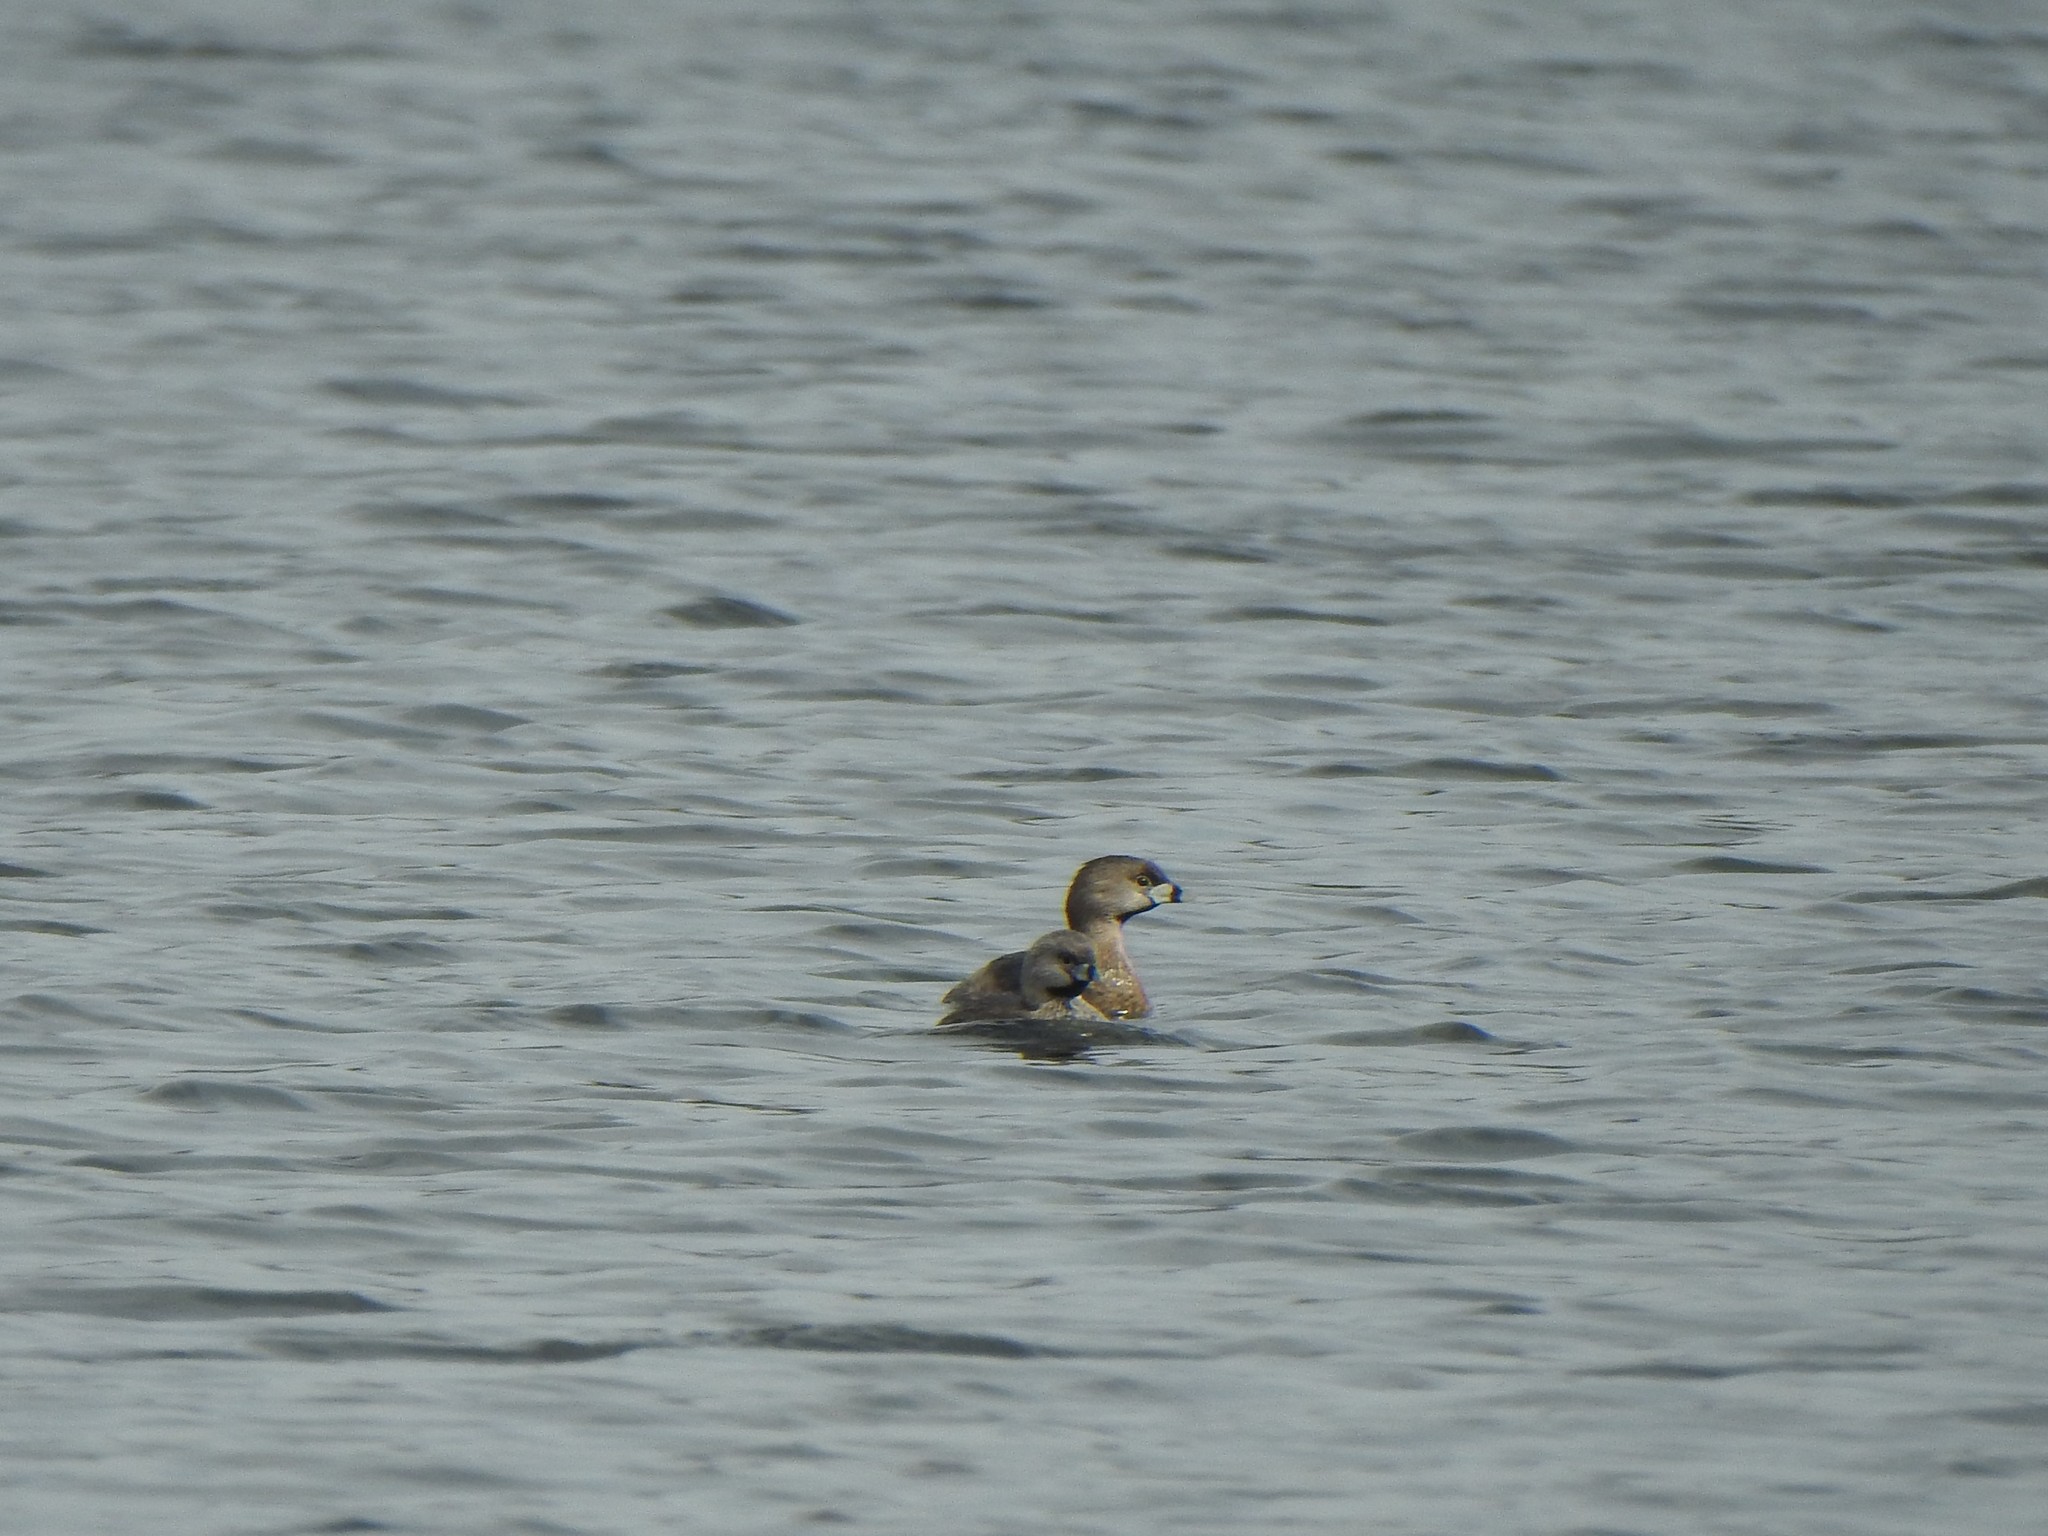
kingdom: Animalia
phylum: Chordata
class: Aves
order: Podicipediformes
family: Podicipedidae
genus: Podilymbus
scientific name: Podilymbus podiceps
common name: Pied-billed grebe
